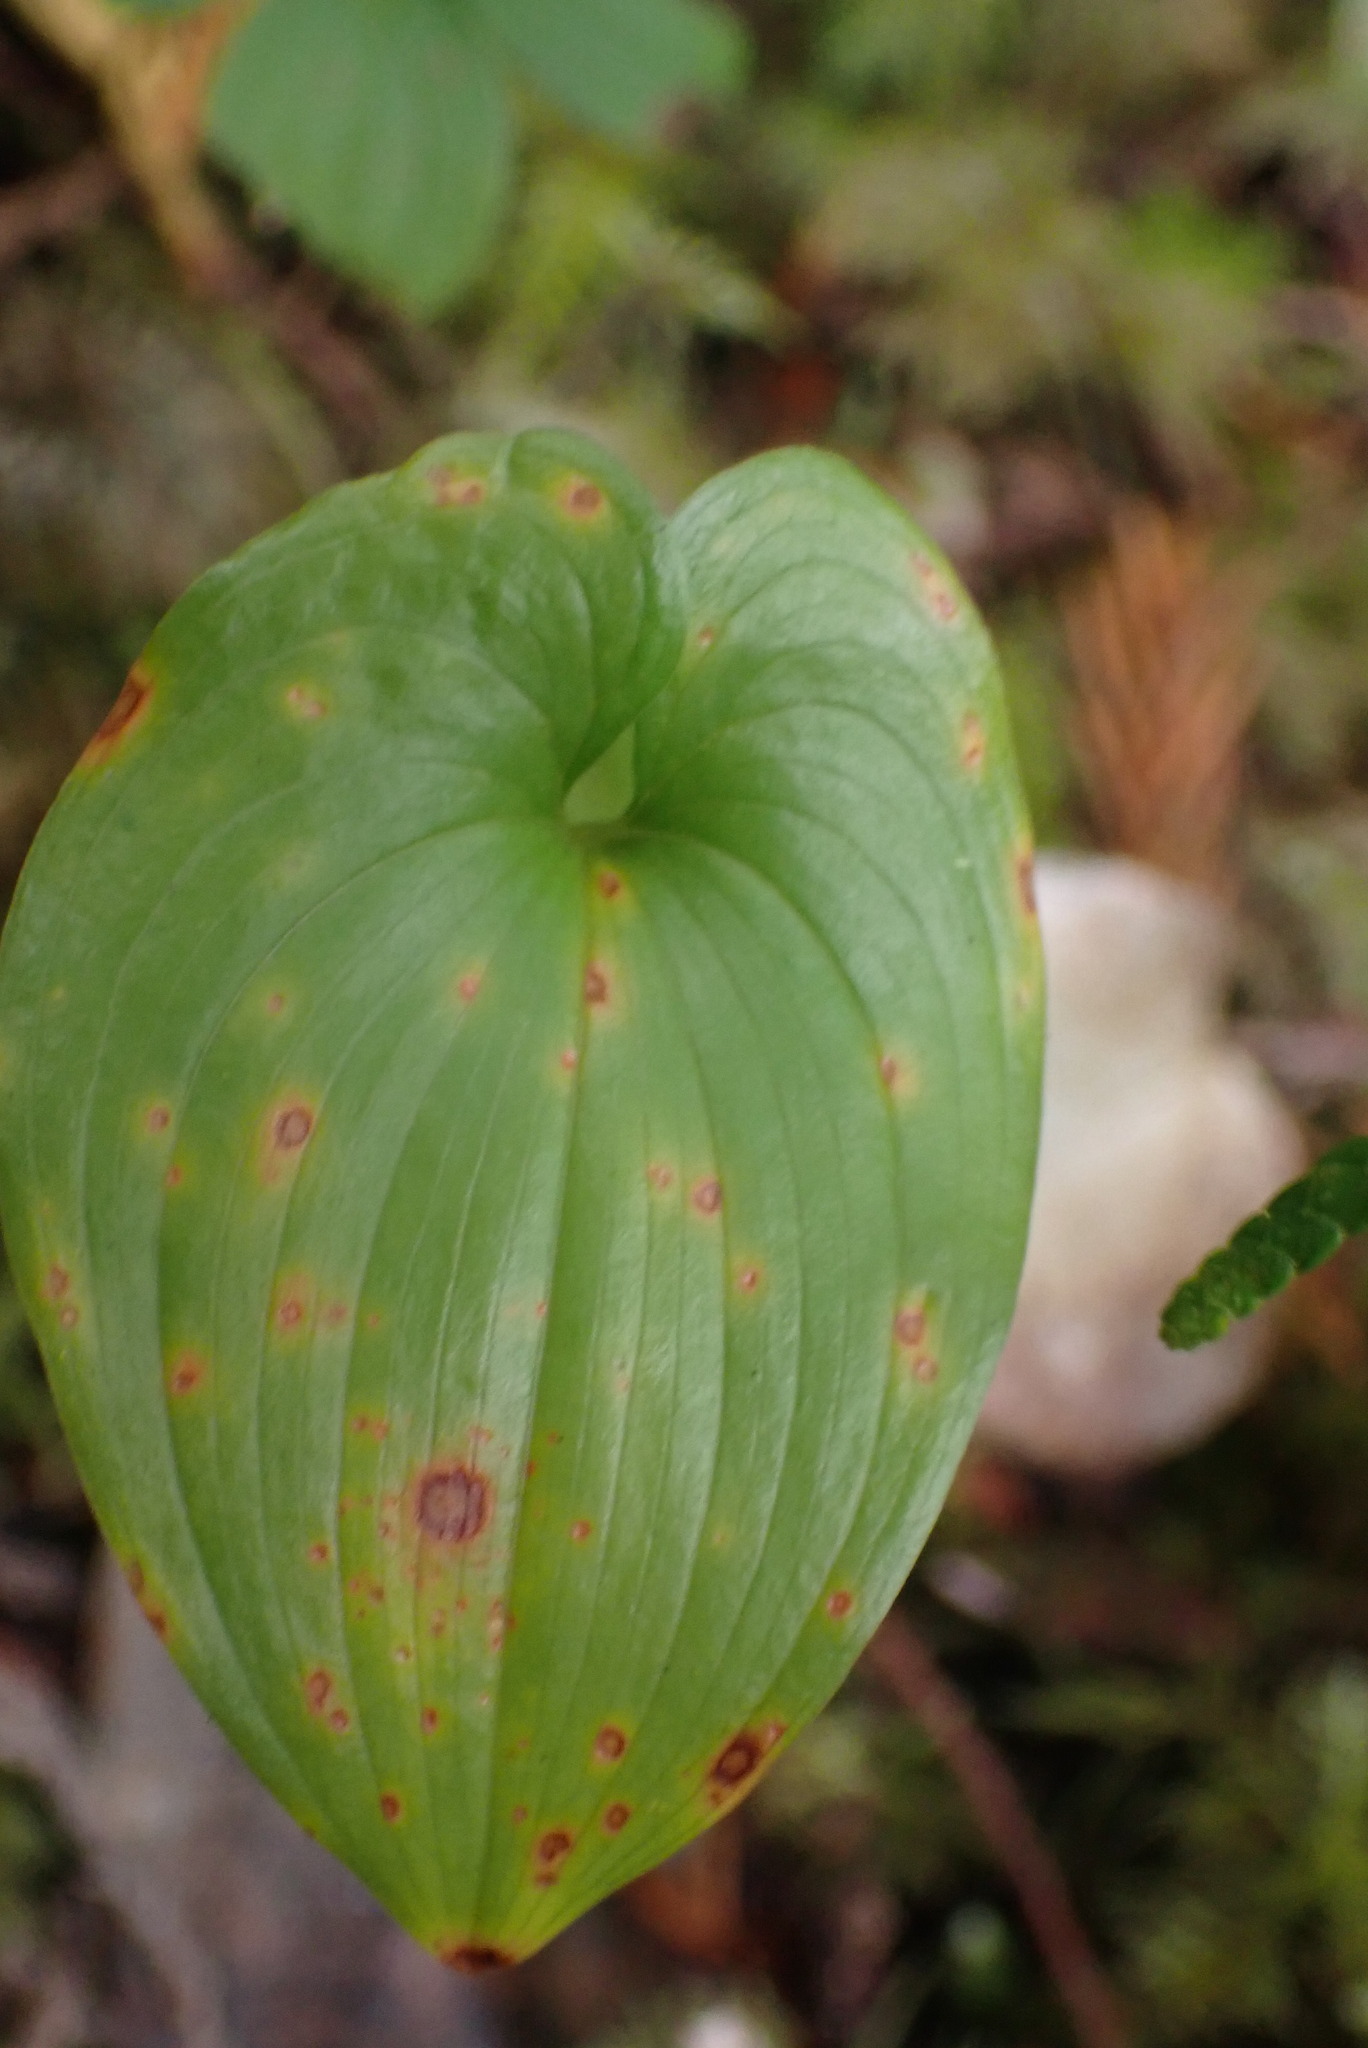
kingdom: Plantae
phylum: Tracheophyta
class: Liliopsida
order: Asparagales
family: Asparagaceae
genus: Maianthemum
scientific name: Maianthemum dilatatum
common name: False lily-of-the-valley
